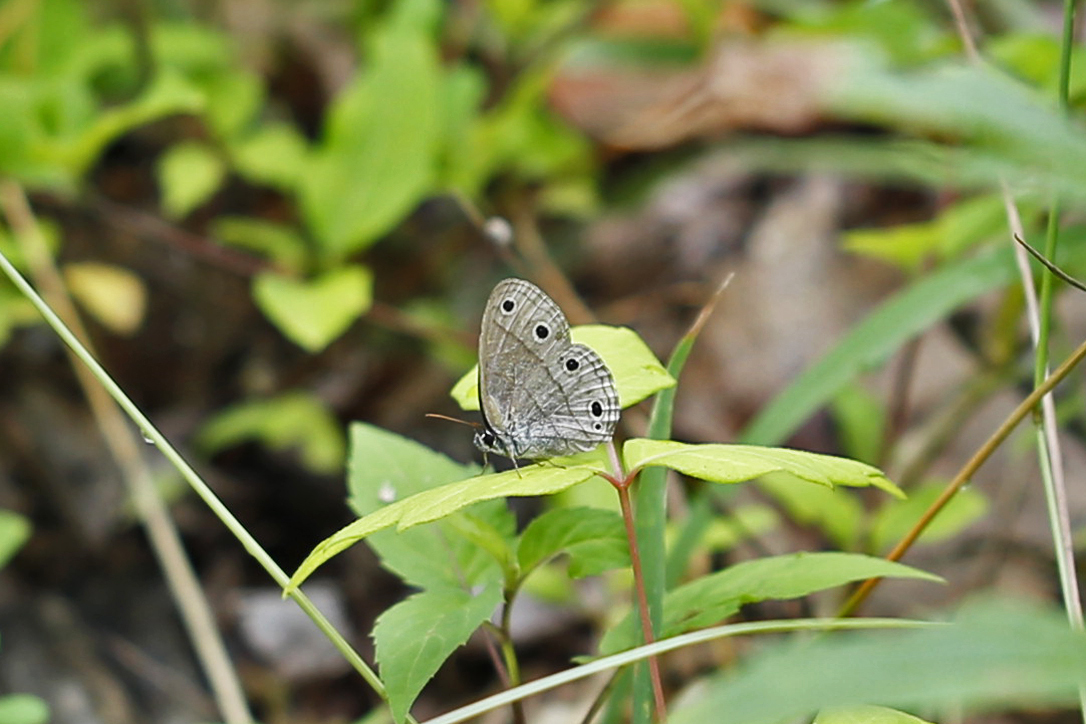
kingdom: Animalia
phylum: Arthropoda
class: Insecta
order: Lepidoptera
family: Nymphalidae
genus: Euptychia
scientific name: Euptychia cymela
